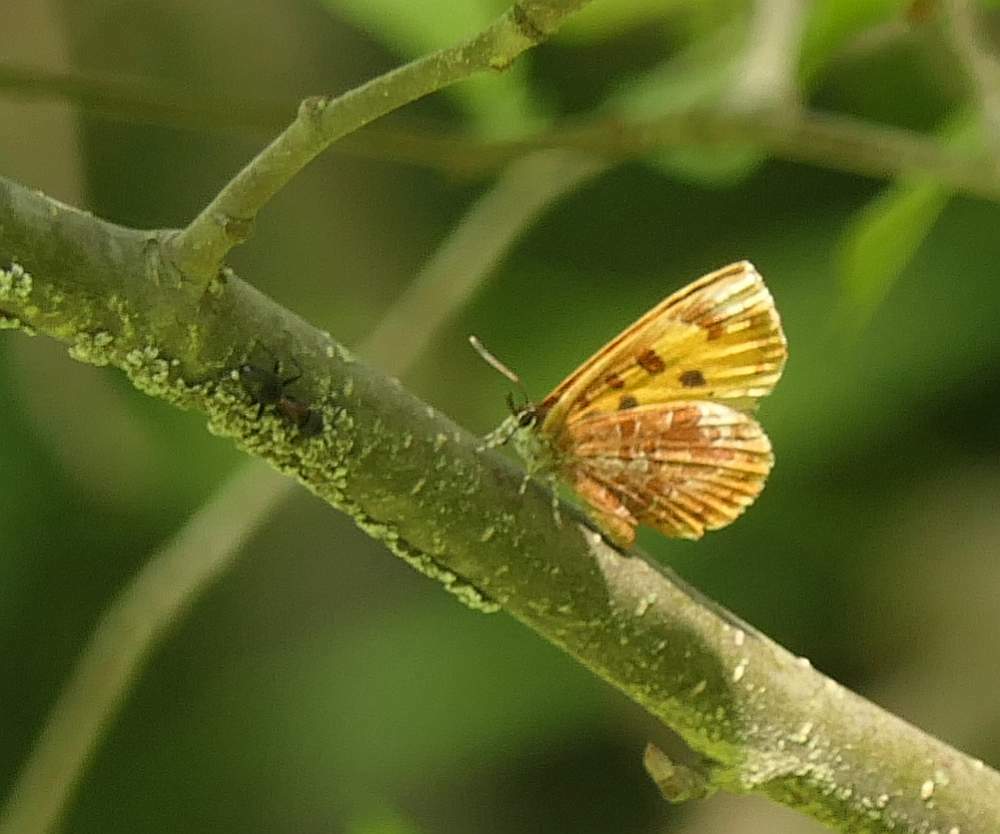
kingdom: Animalia
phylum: Arthropoda
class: Insecta
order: Lepidoptera
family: Lycaenidae
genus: Feniseca
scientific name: Feniseca tarquinius
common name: Harvester
